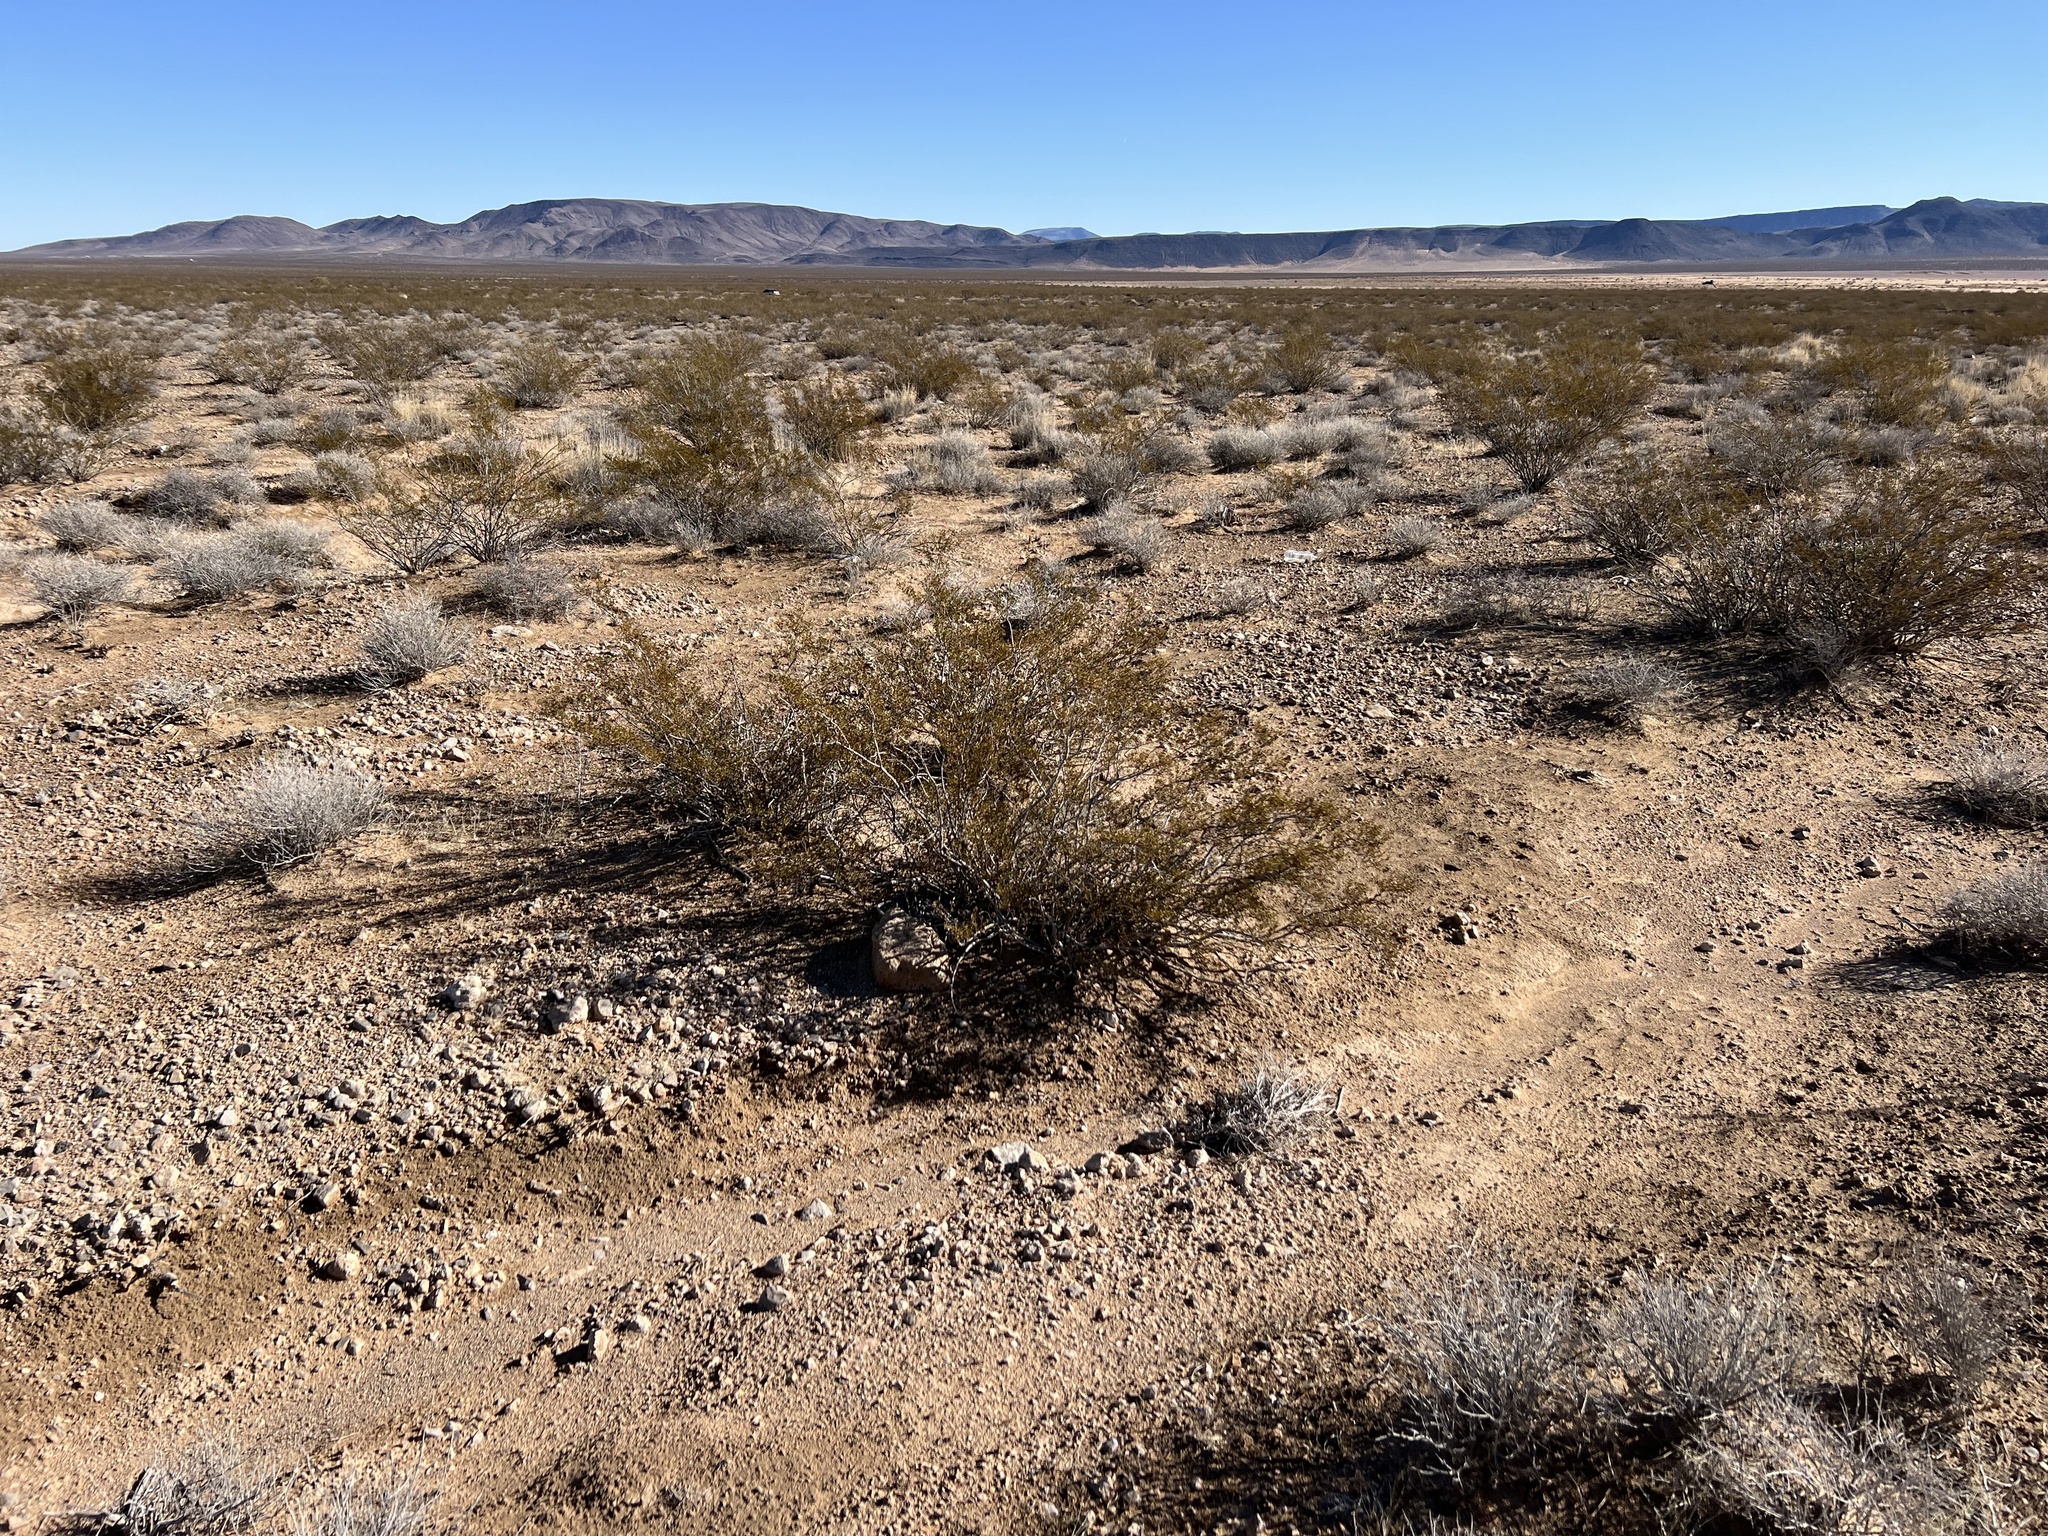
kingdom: Plantae
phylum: Tracheophyta
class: Magnoliopsida
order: Zygophyllales
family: Zygophyllaceae
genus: Larrea
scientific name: Larrea tridentata
